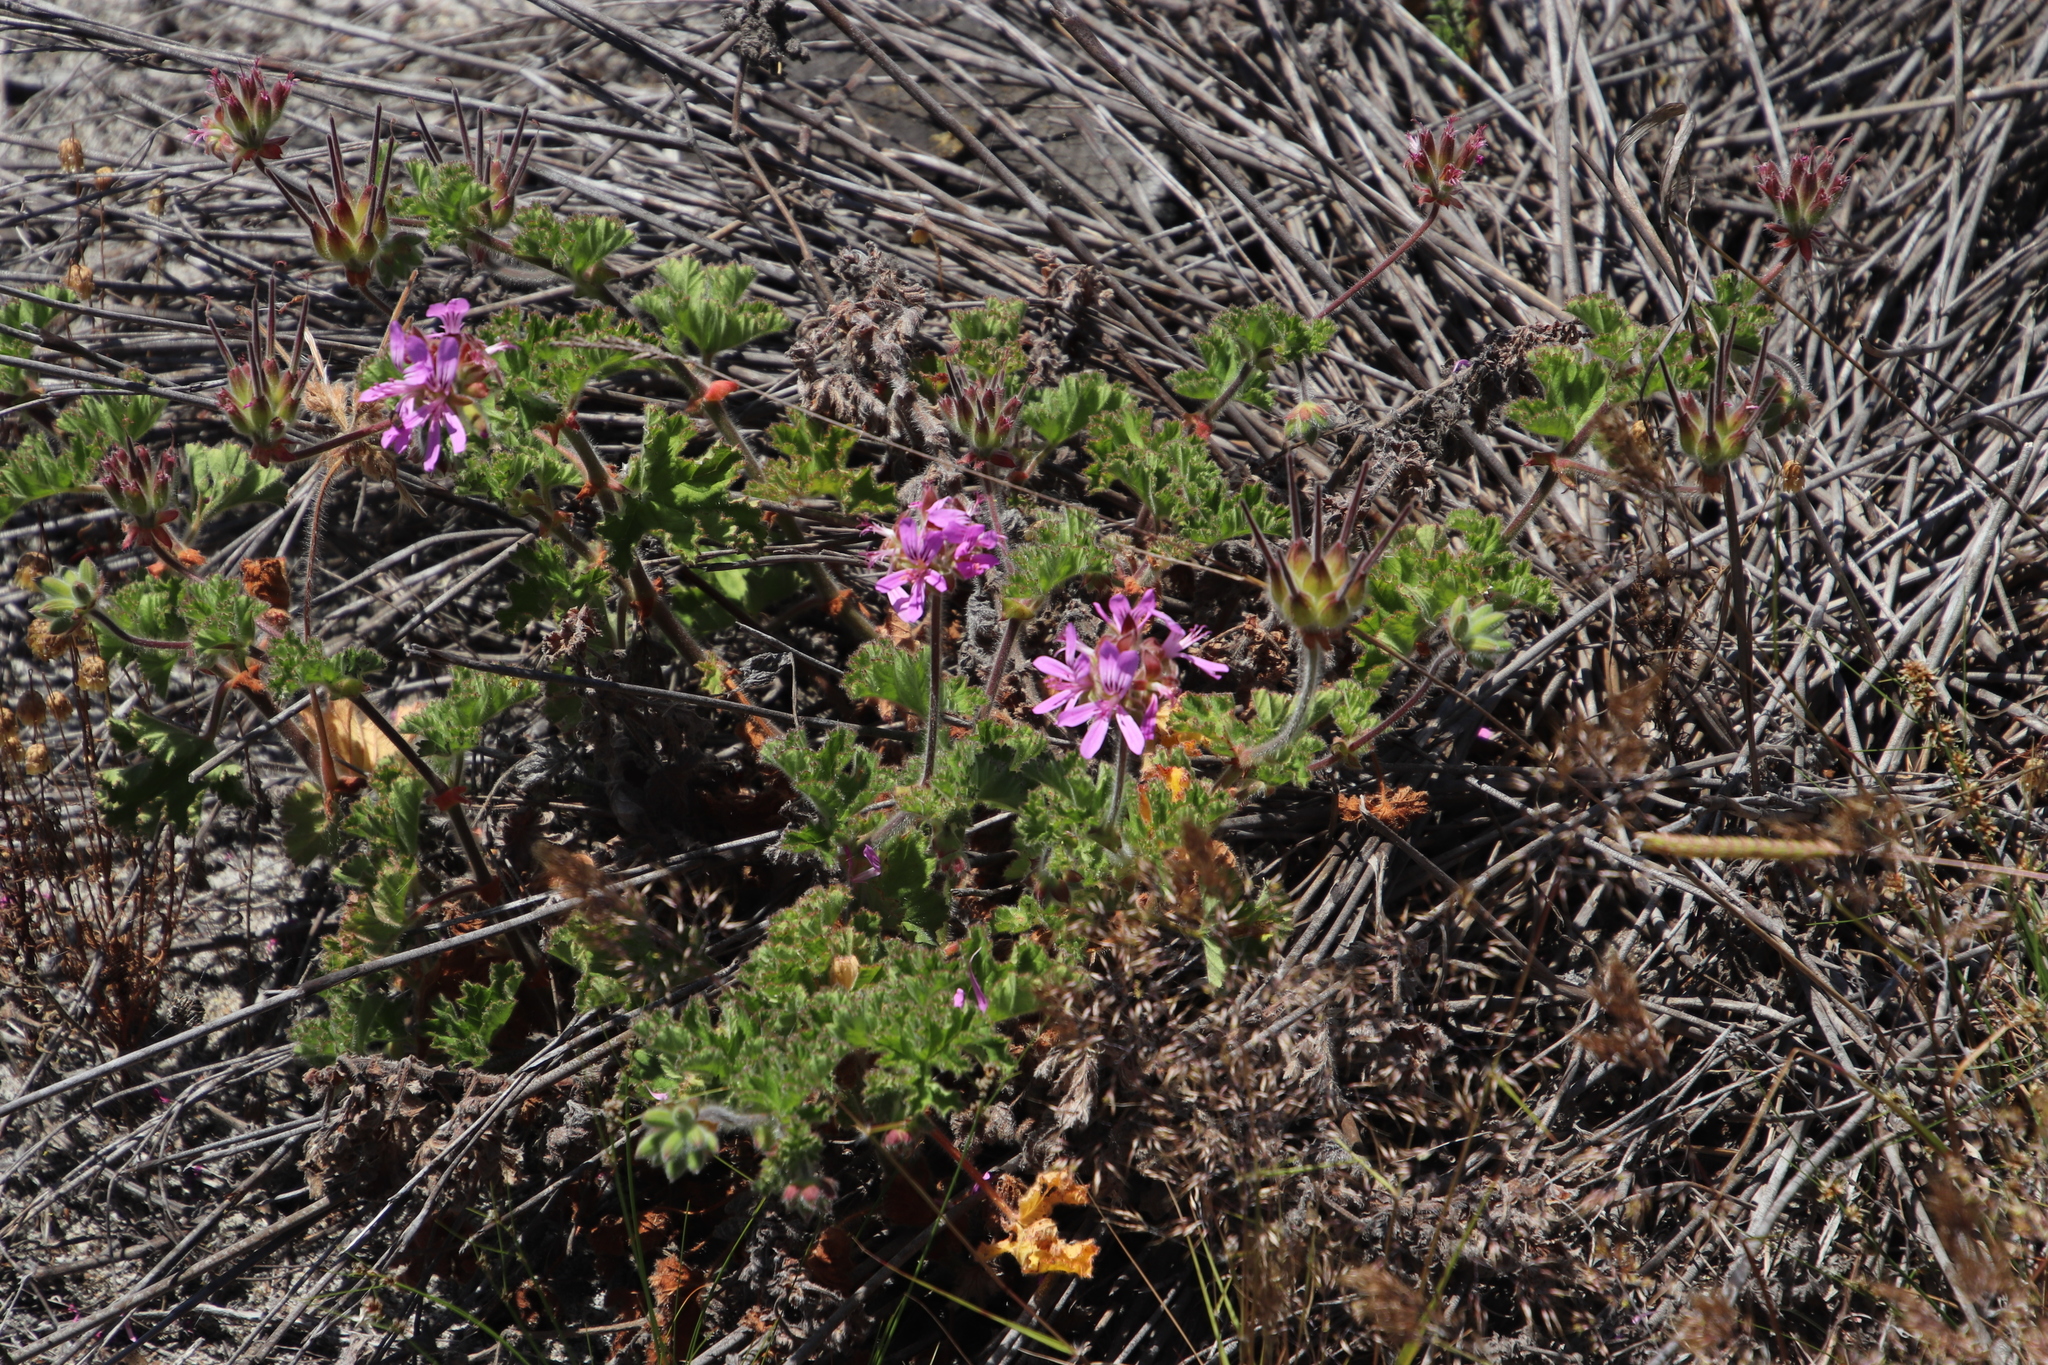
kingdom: Plantae
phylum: Tracheophyta
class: Magnoliopsida
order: Geraniales
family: Geraniaceae
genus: Pelargonium
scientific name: Pelargonium capitatum
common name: Rose scented geranium
